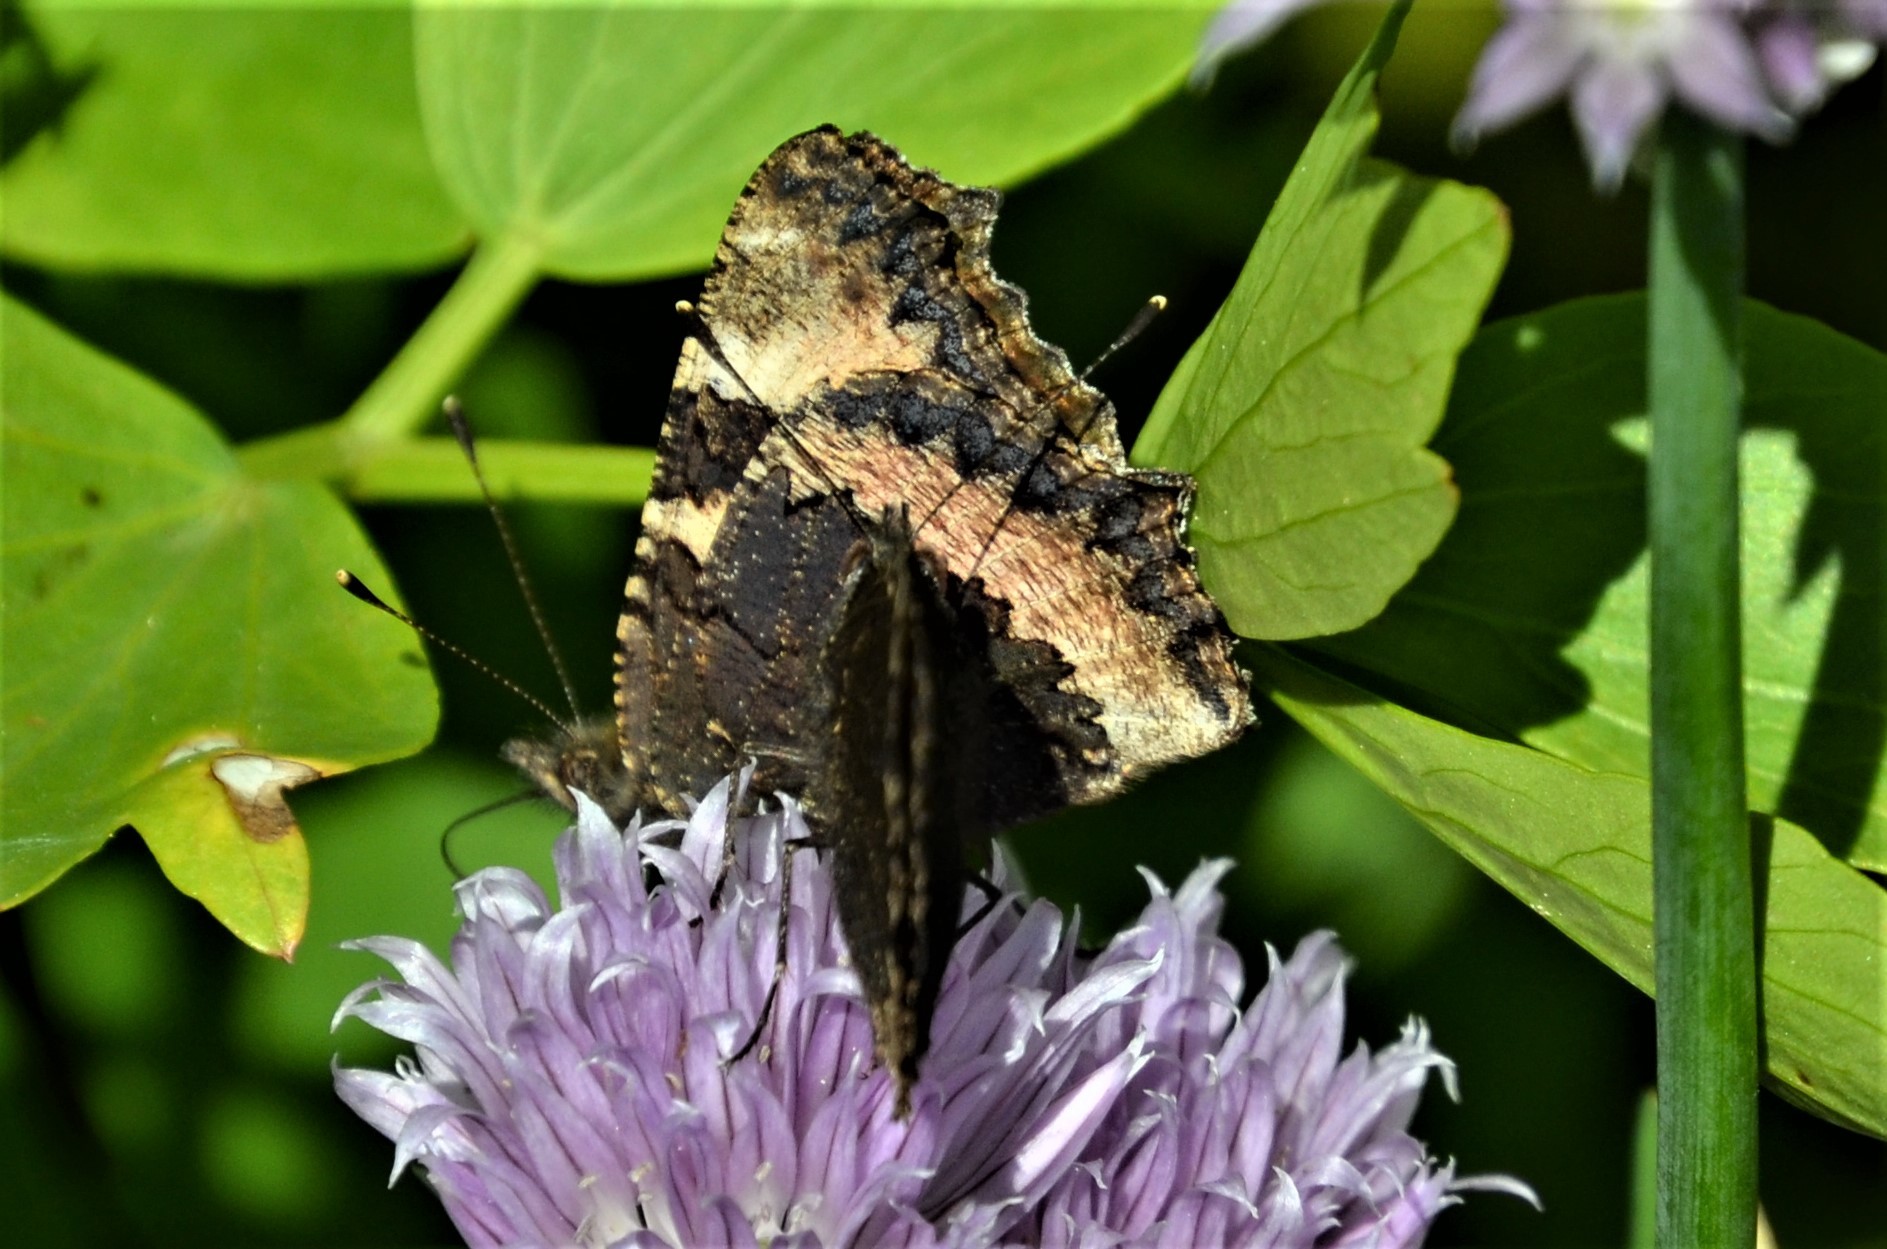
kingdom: Animalia
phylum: Arthropoda
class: Insecta
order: Lepidoptera
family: Nymphalidae
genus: Aglais
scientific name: Aglais urticae
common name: Small tortoiseshell
